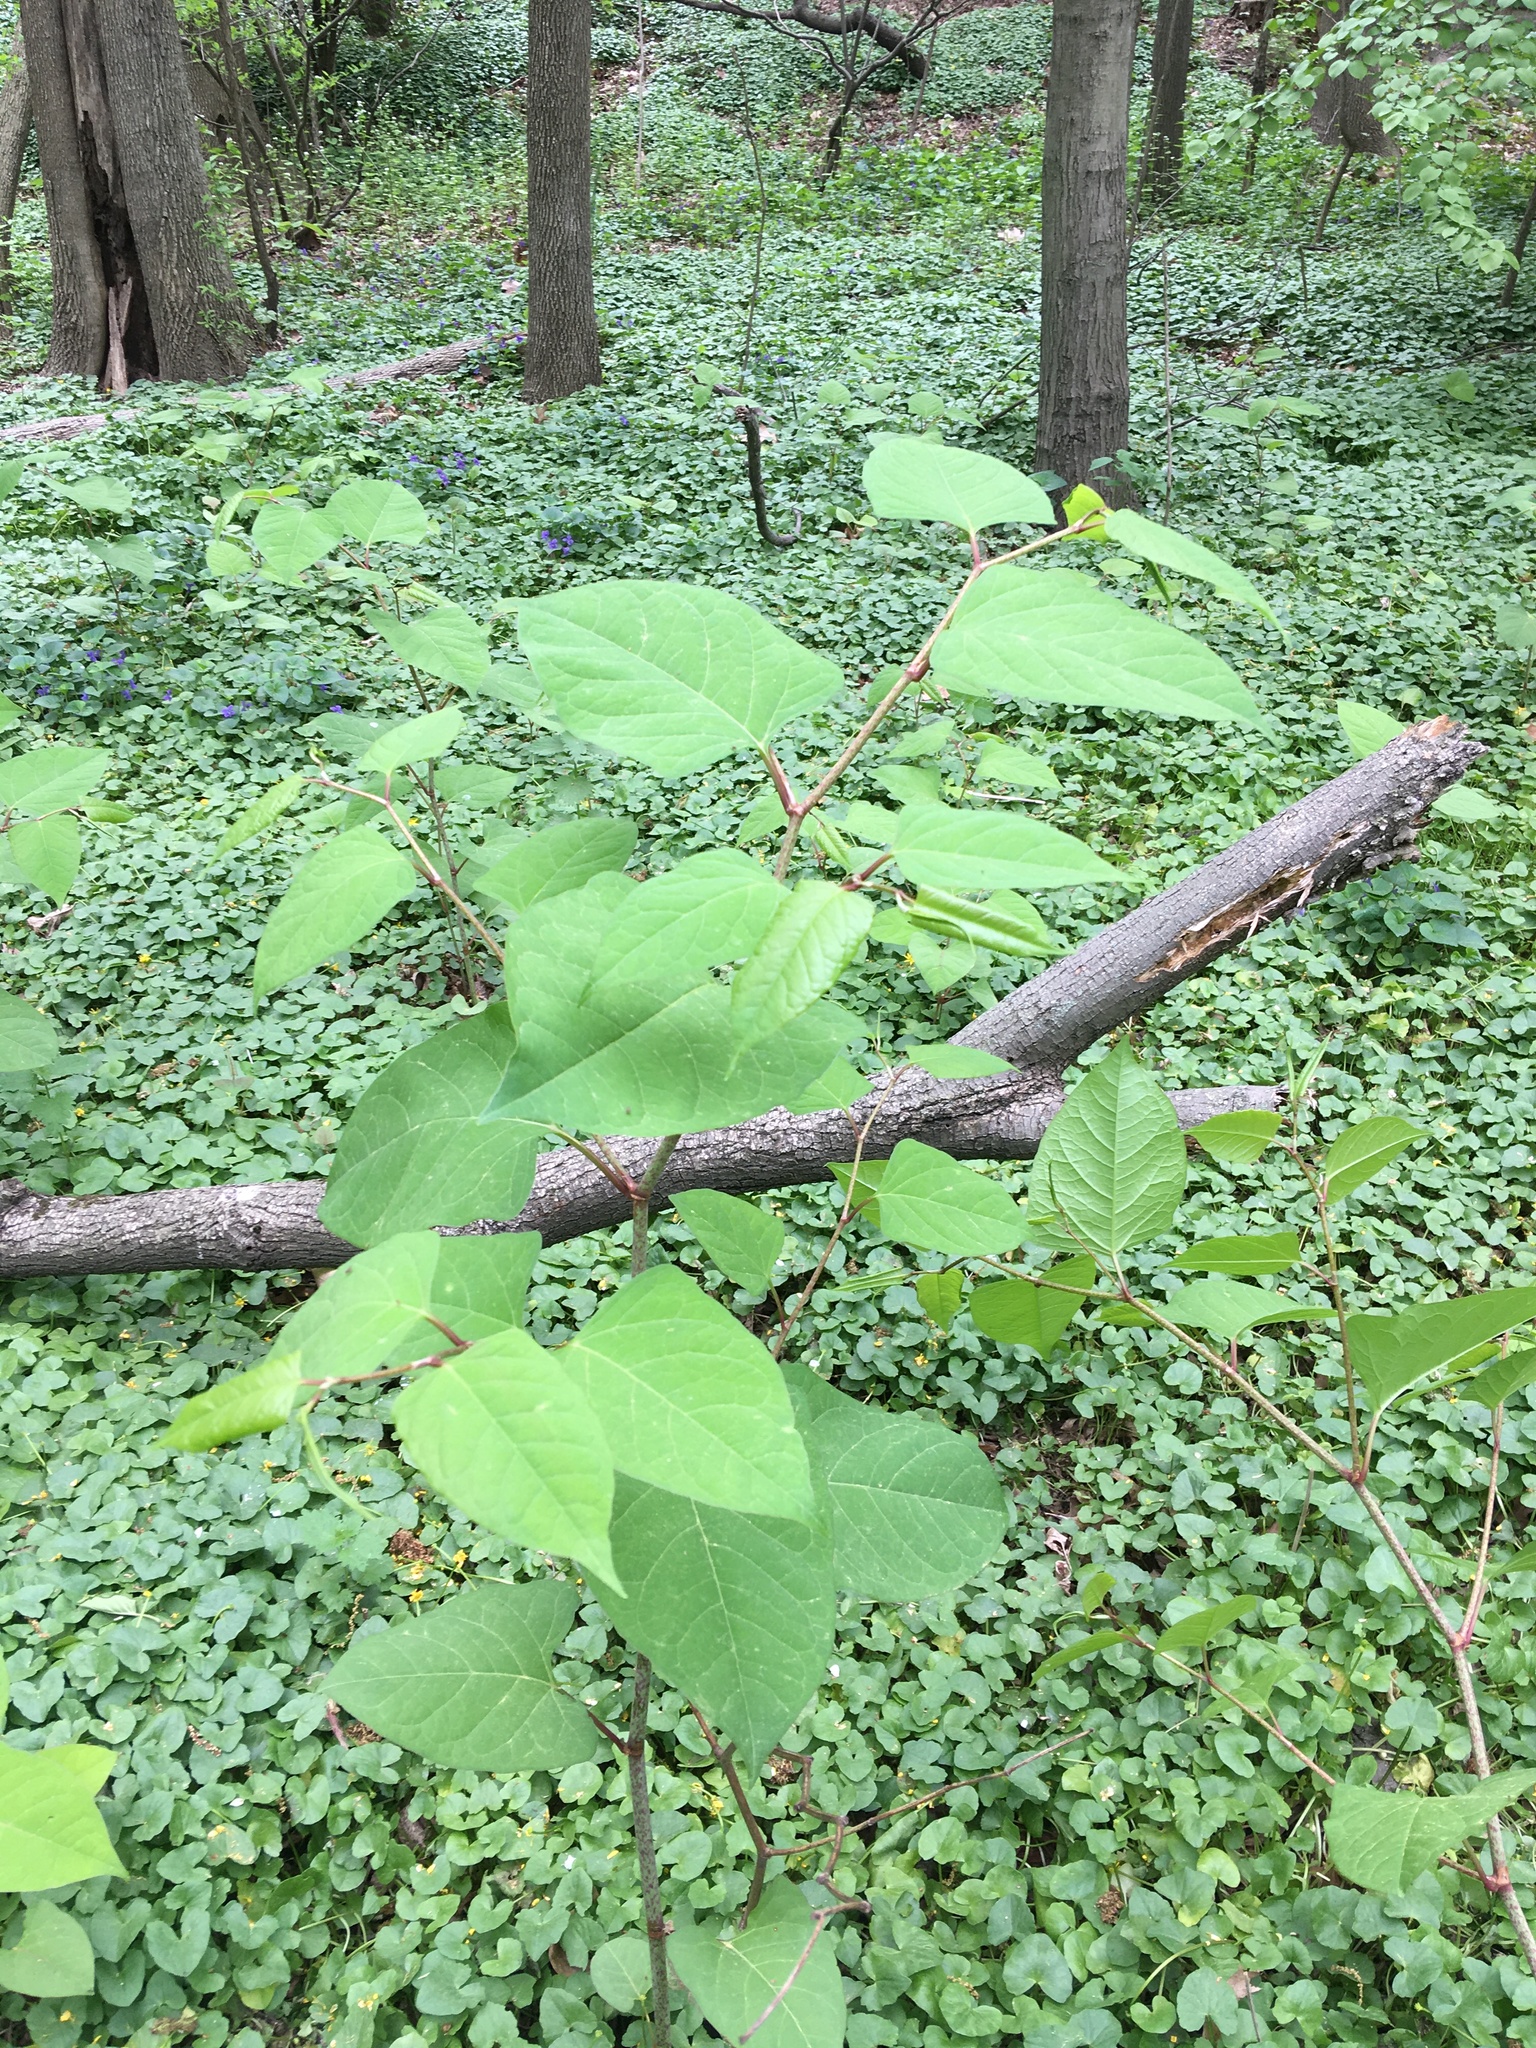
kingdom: Plantae
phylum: Tracheophyta
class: Magnoliopsida
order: Caryophyllales
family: Polygonaceae
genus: Reynoutria
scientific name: Reynoutria japonica
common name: Japanese knotweed
